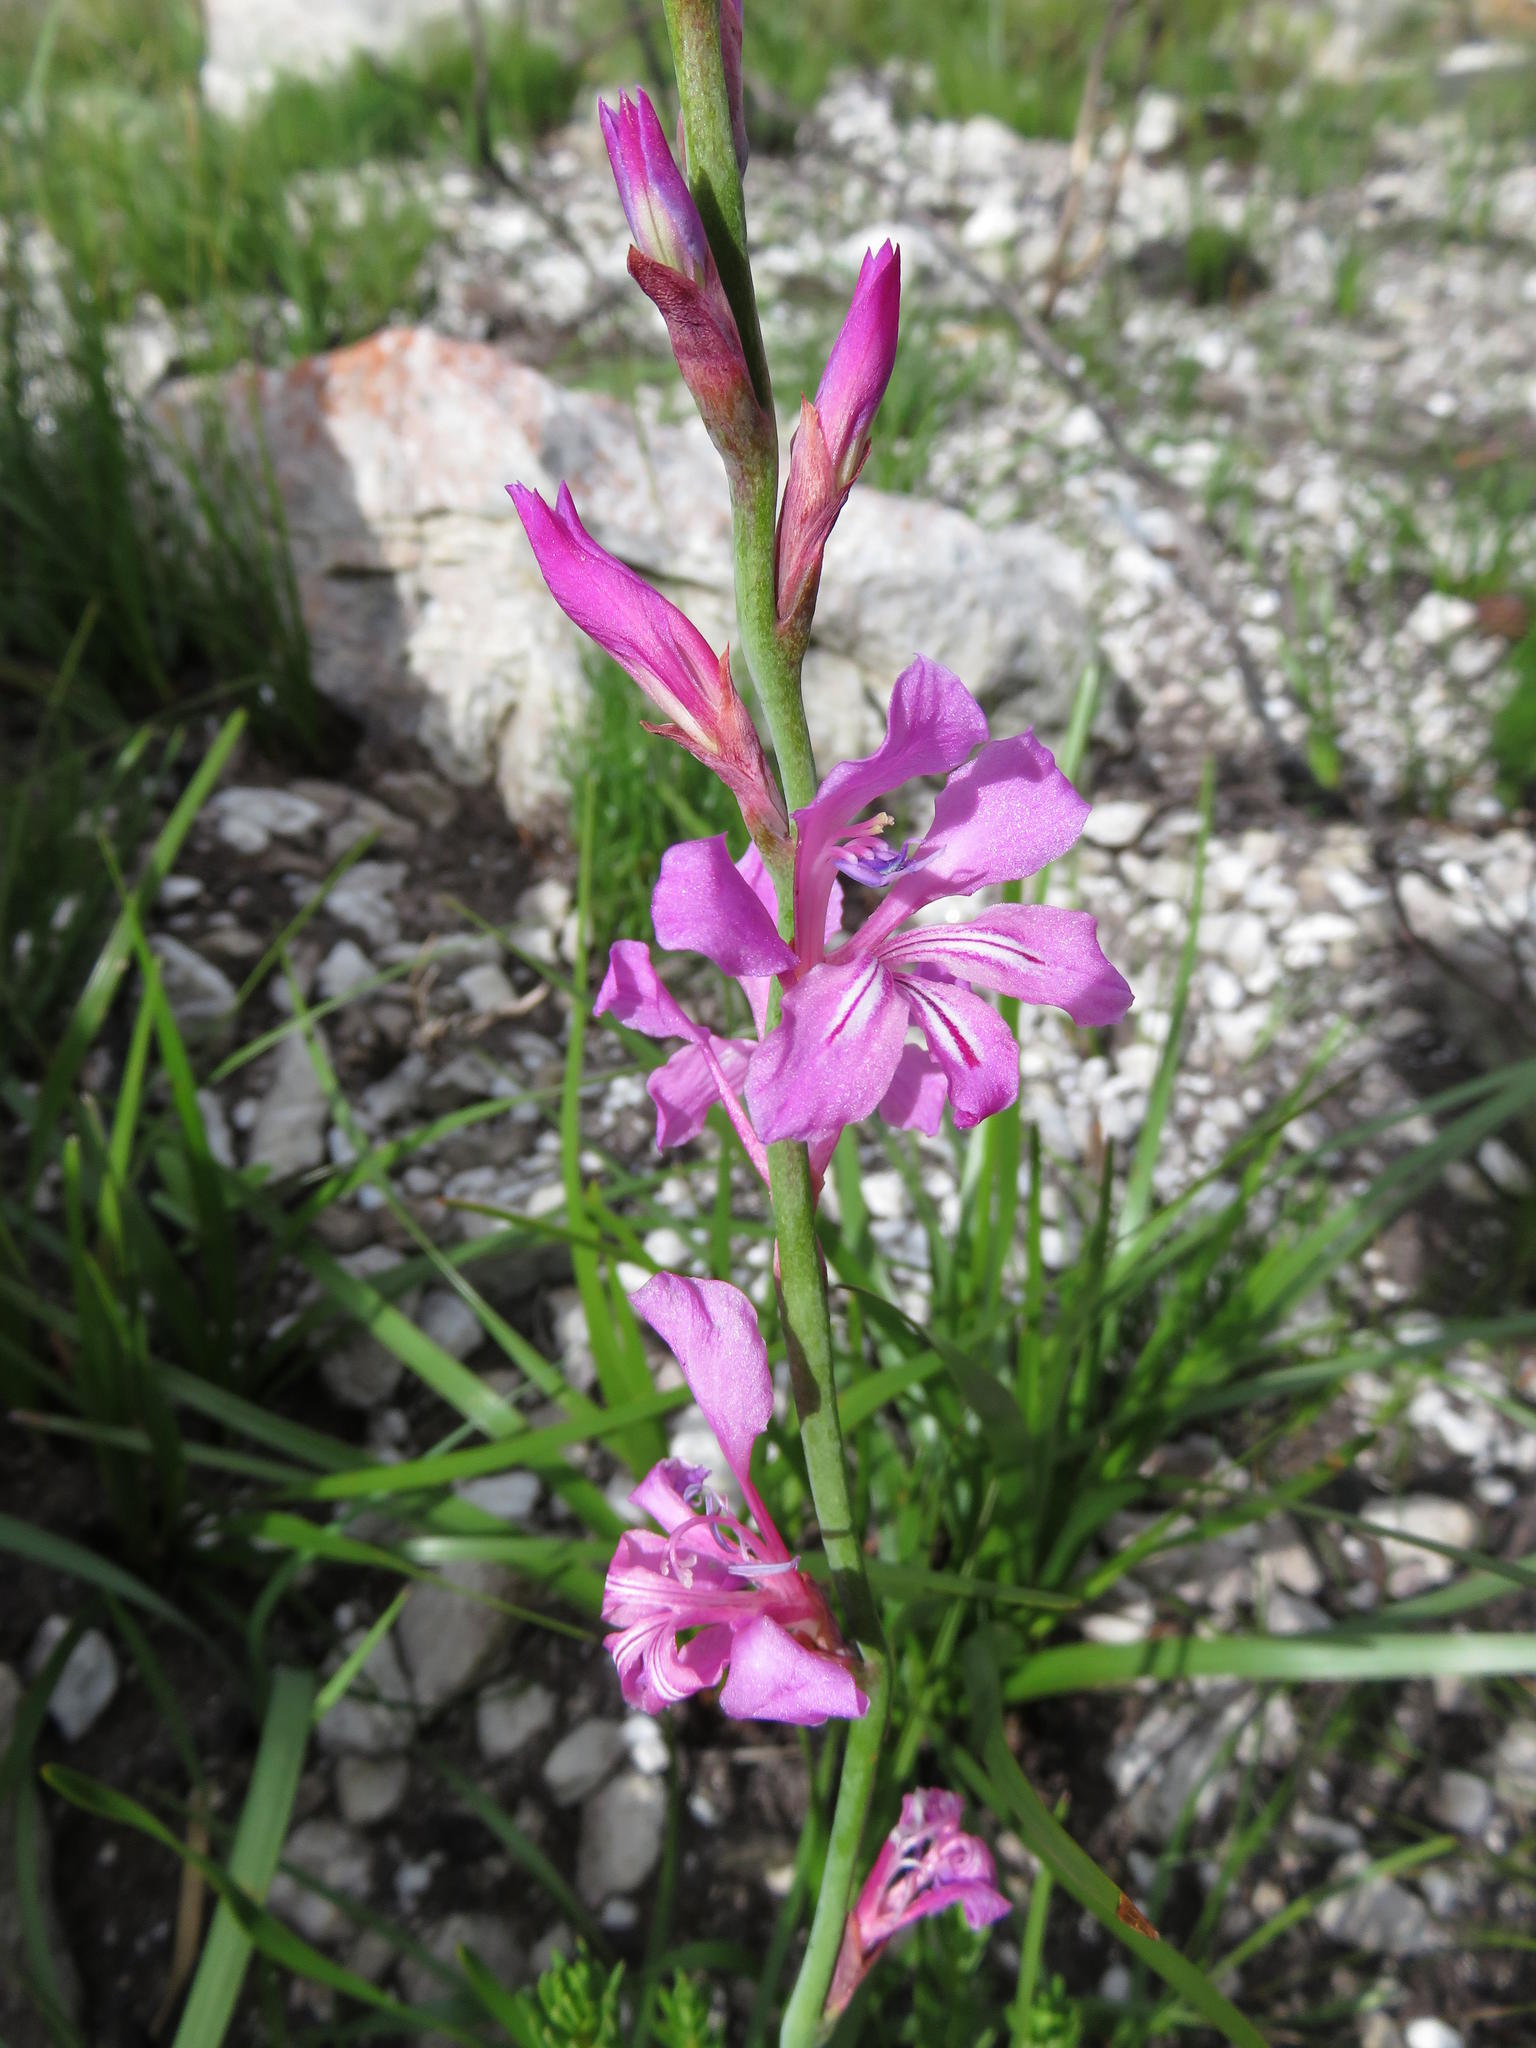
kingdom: Plantae
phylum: Tracheophyta
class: Liliopsida
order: Asparagales
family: Iridaceae
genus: Tritoniopsis
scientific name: Tritoniopsis lata
